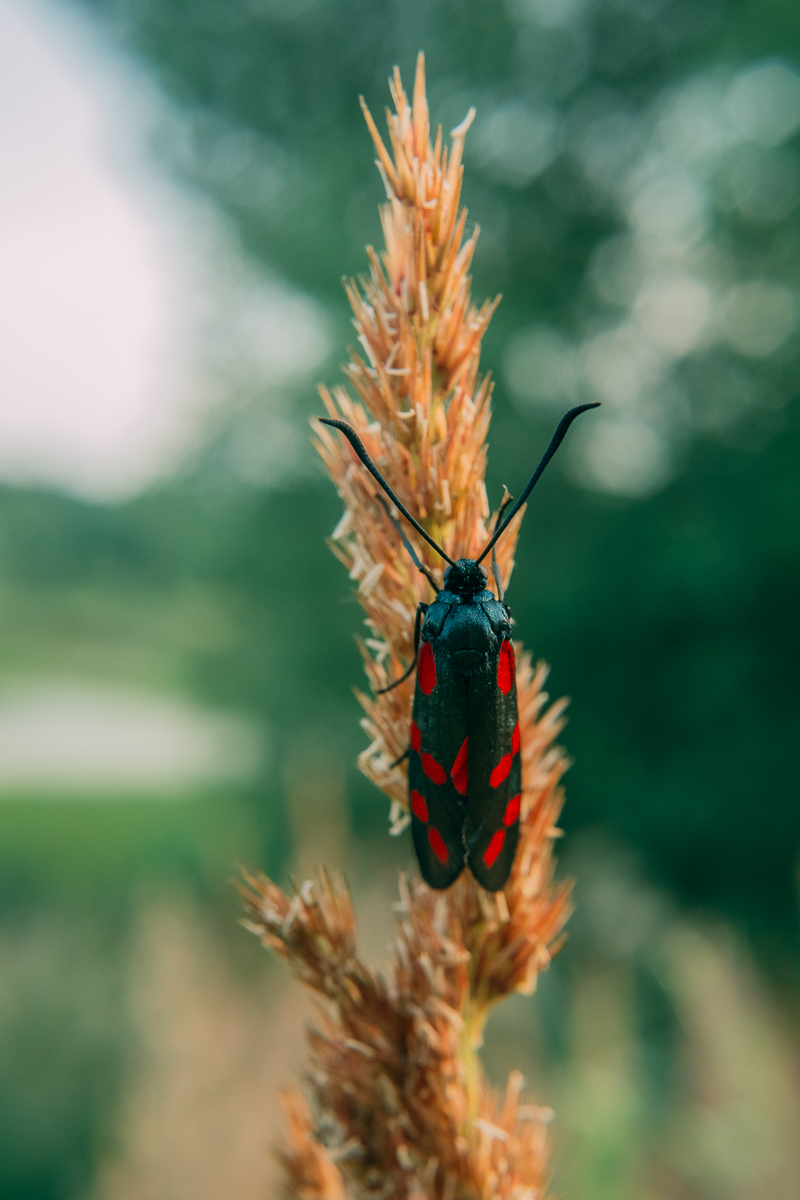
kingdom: Animalia
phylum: Arthropoda
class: Insecta
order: Lepidoptera
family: Zygaenidae
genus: Zygaena
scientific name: Zygaena filipendulae
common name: Six-spot burnet
